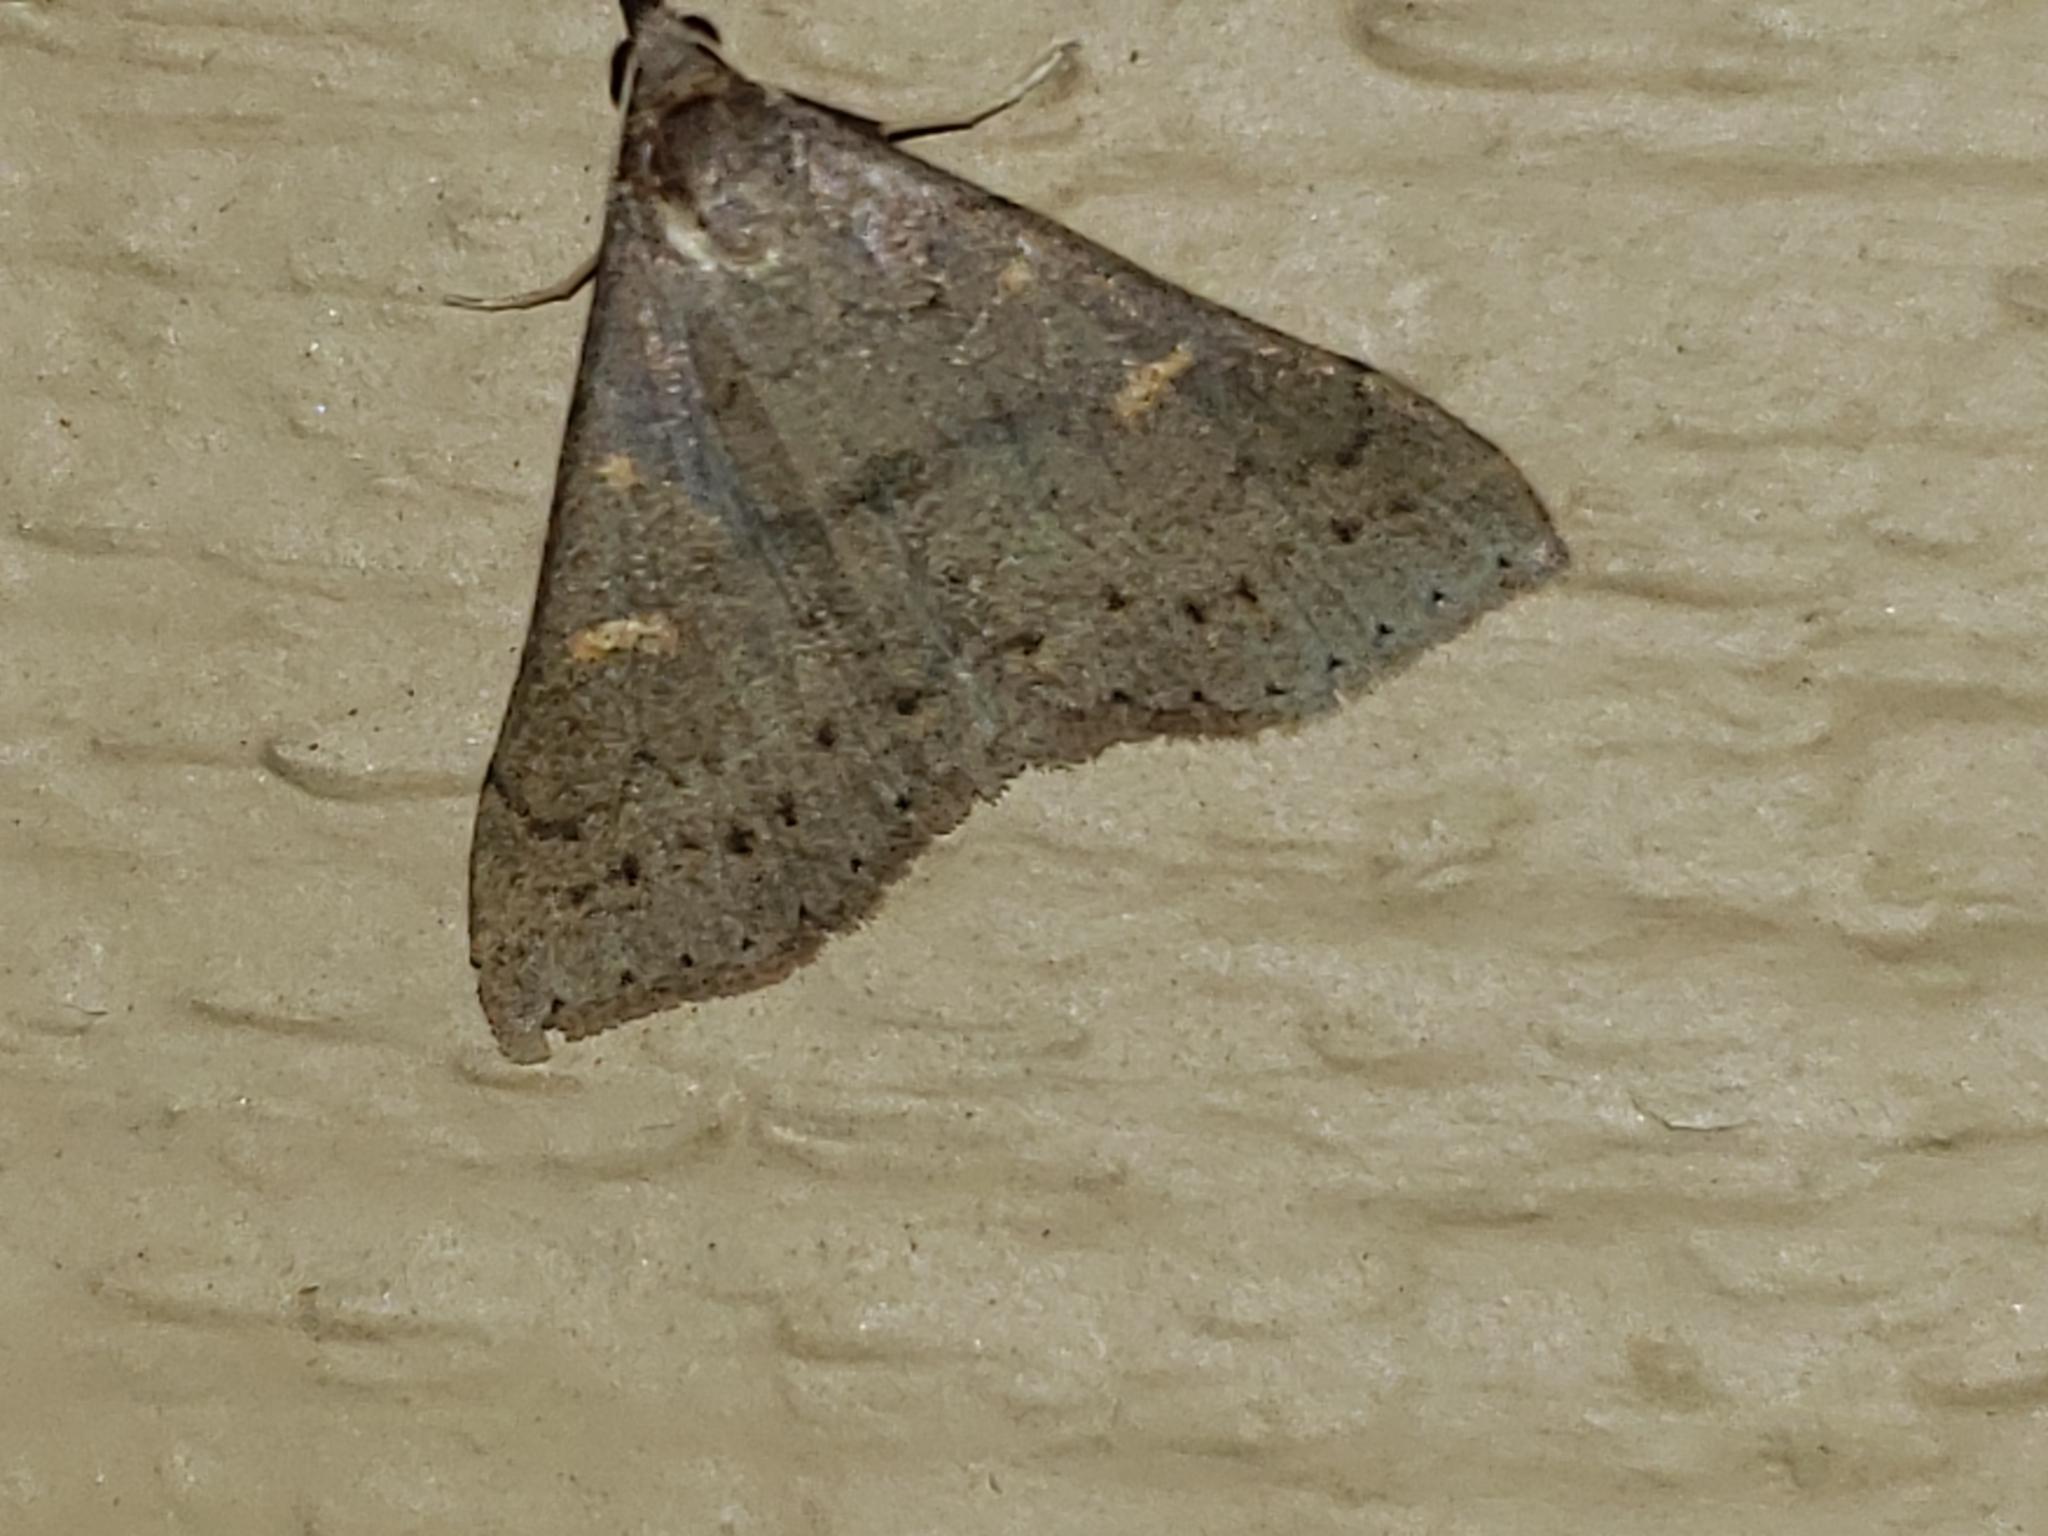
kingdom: Animalia
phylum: Arthropoda
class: Insecta
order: Lepidoptera
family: Erebidae
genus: Renia
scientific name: Renia adspergillus
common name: Speckled renia moth
